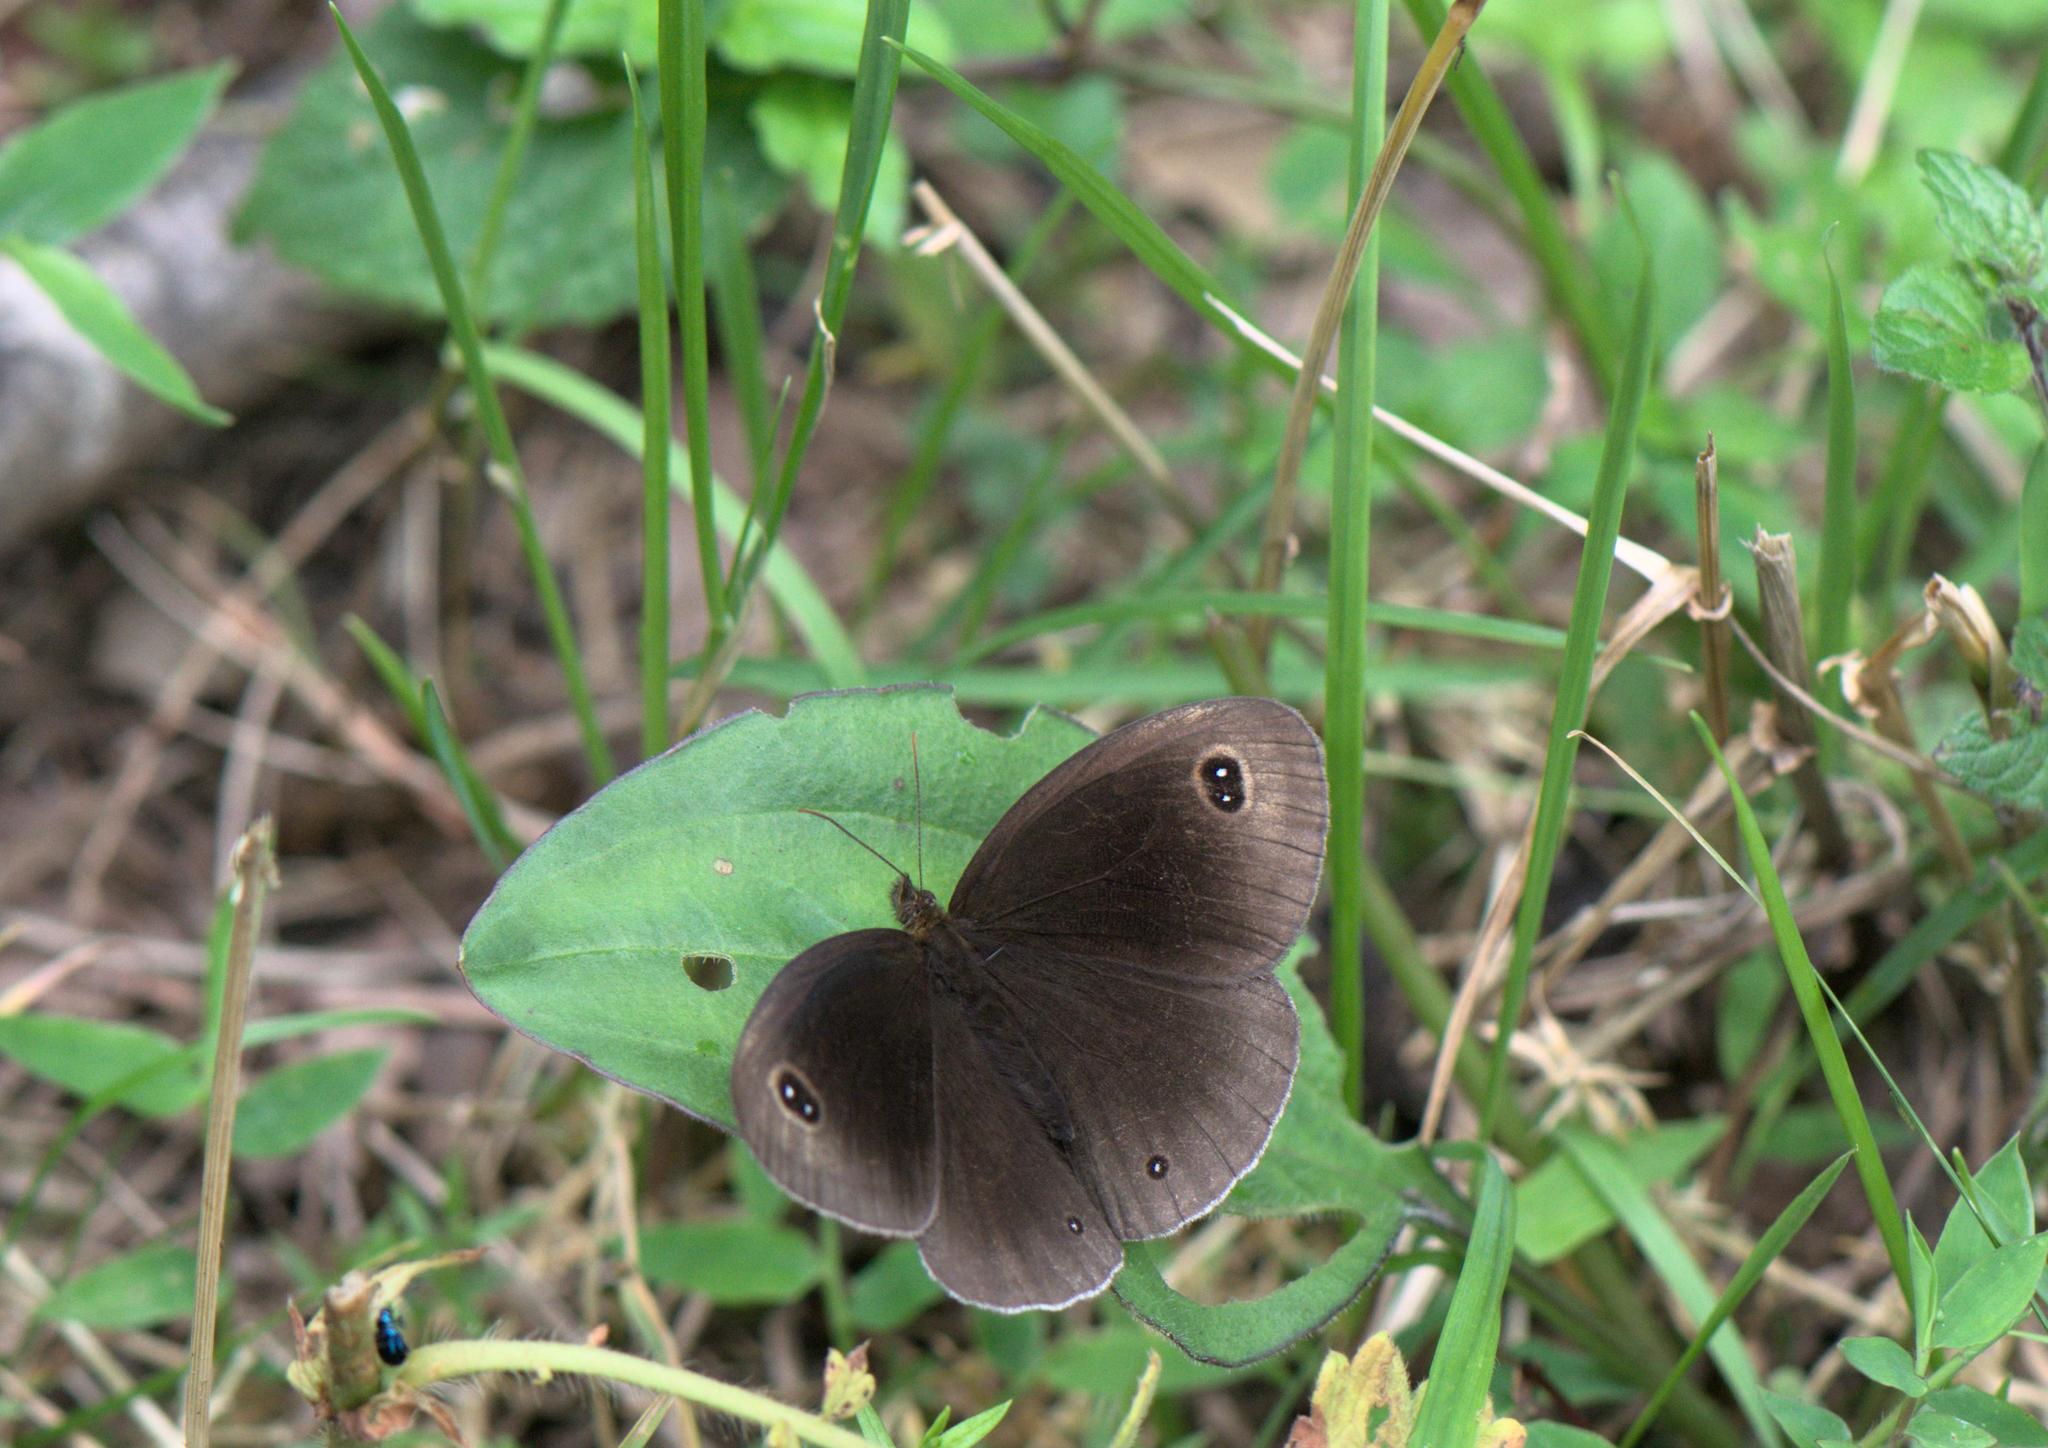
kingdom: Animalia
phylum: Arthropoda
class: Insecta
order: Lepidoptera
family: Nymphalidae
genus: Callerebia
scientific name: Callerebia scanda
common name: Pallid argus
